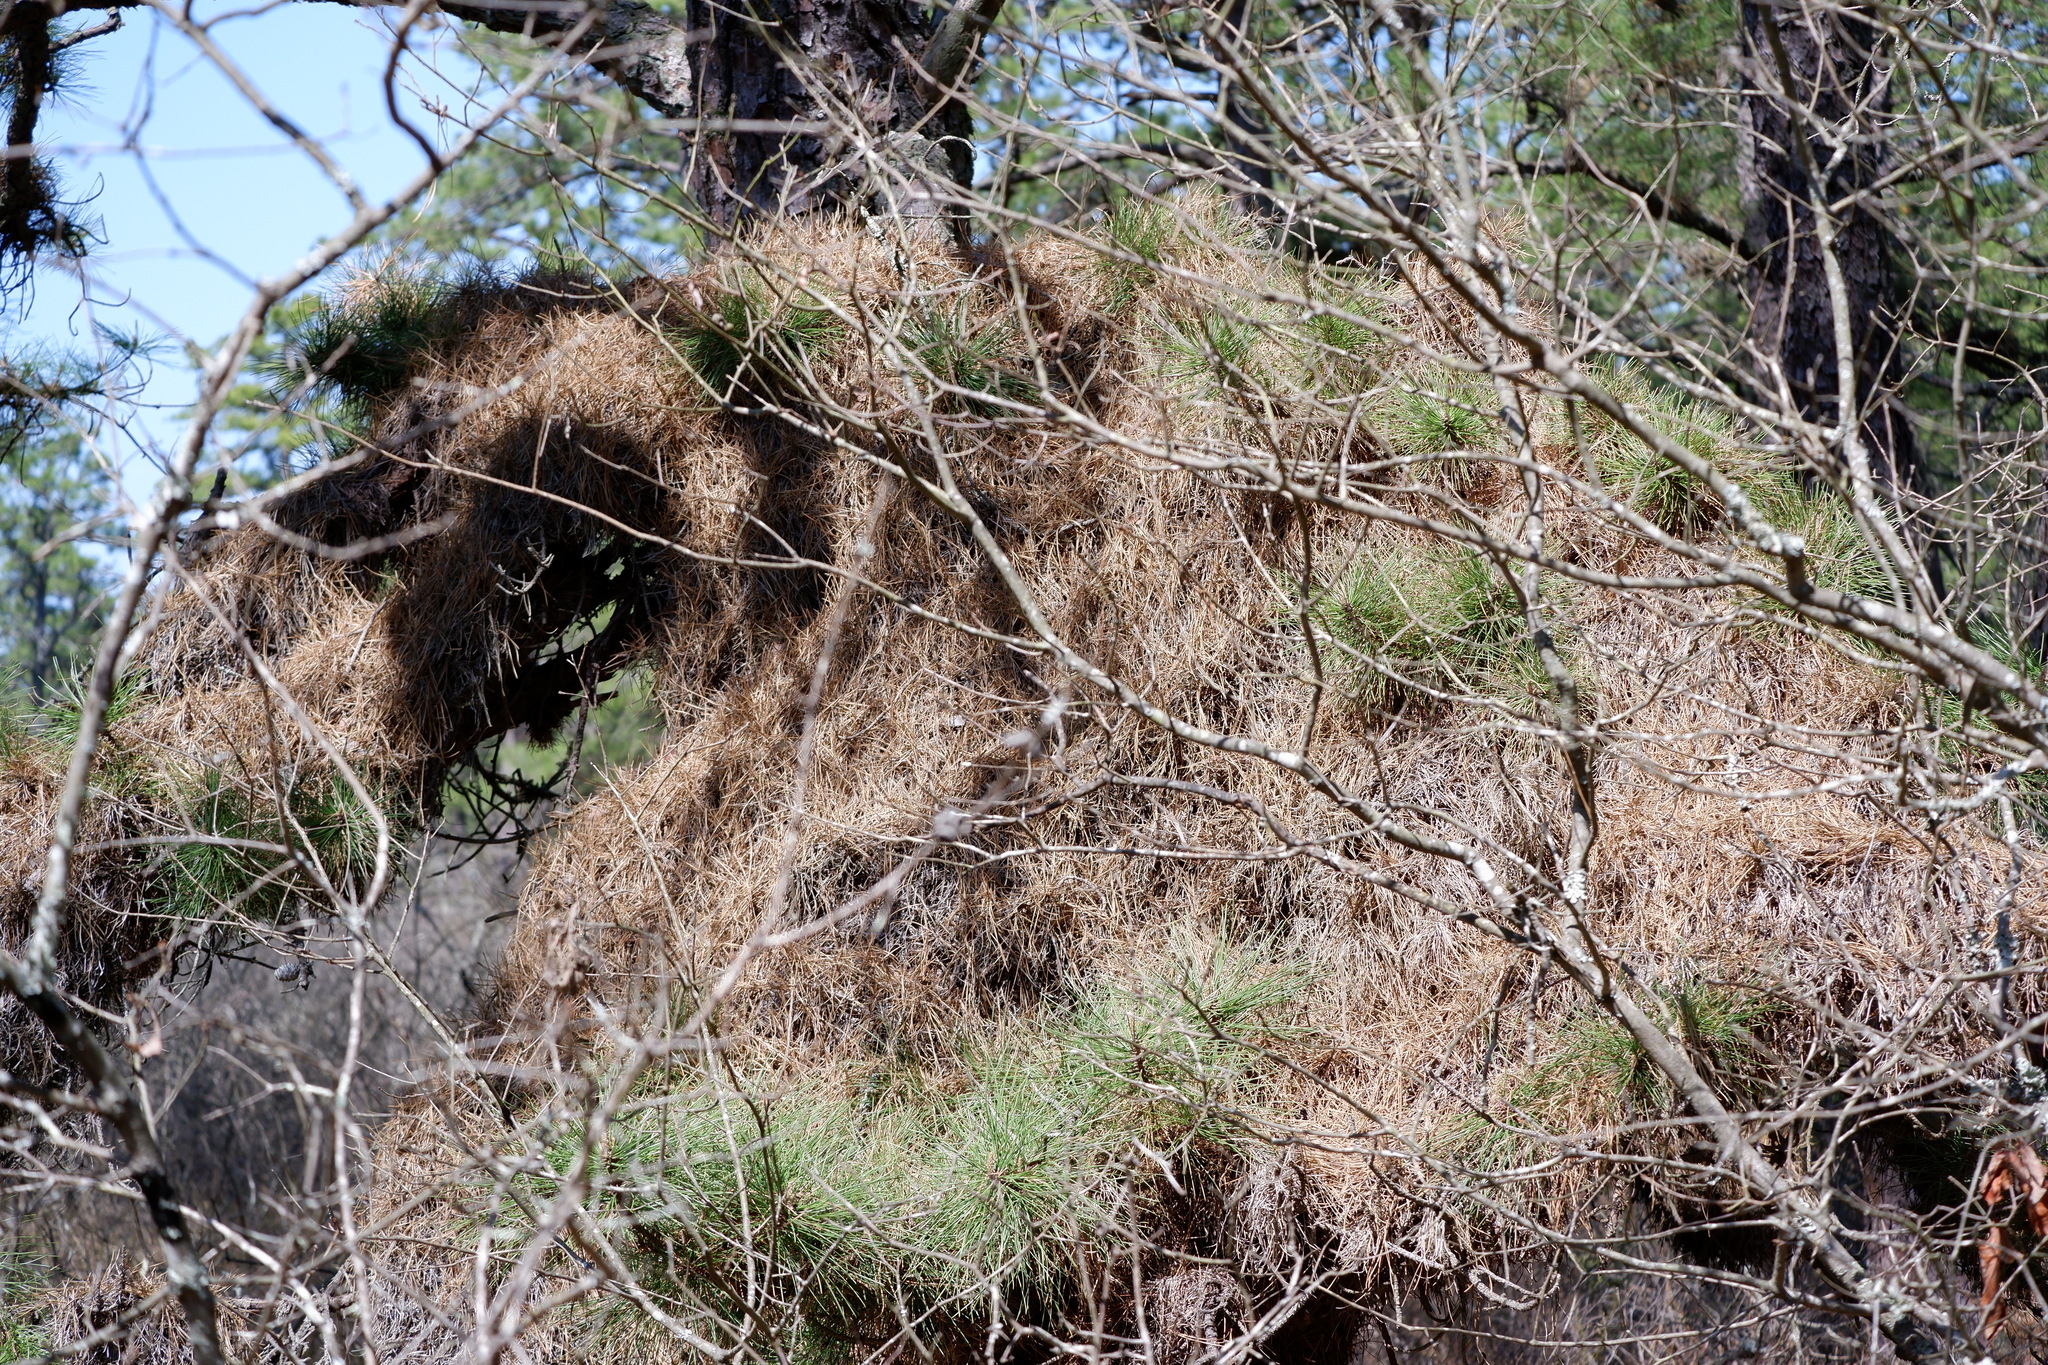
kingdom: Bacteria
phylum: Firmicutes
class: Bacilli
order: Acholeplasmatales
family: Acholeplasmataceae
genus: Phytoplasma
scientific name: Phytoplasma pini
